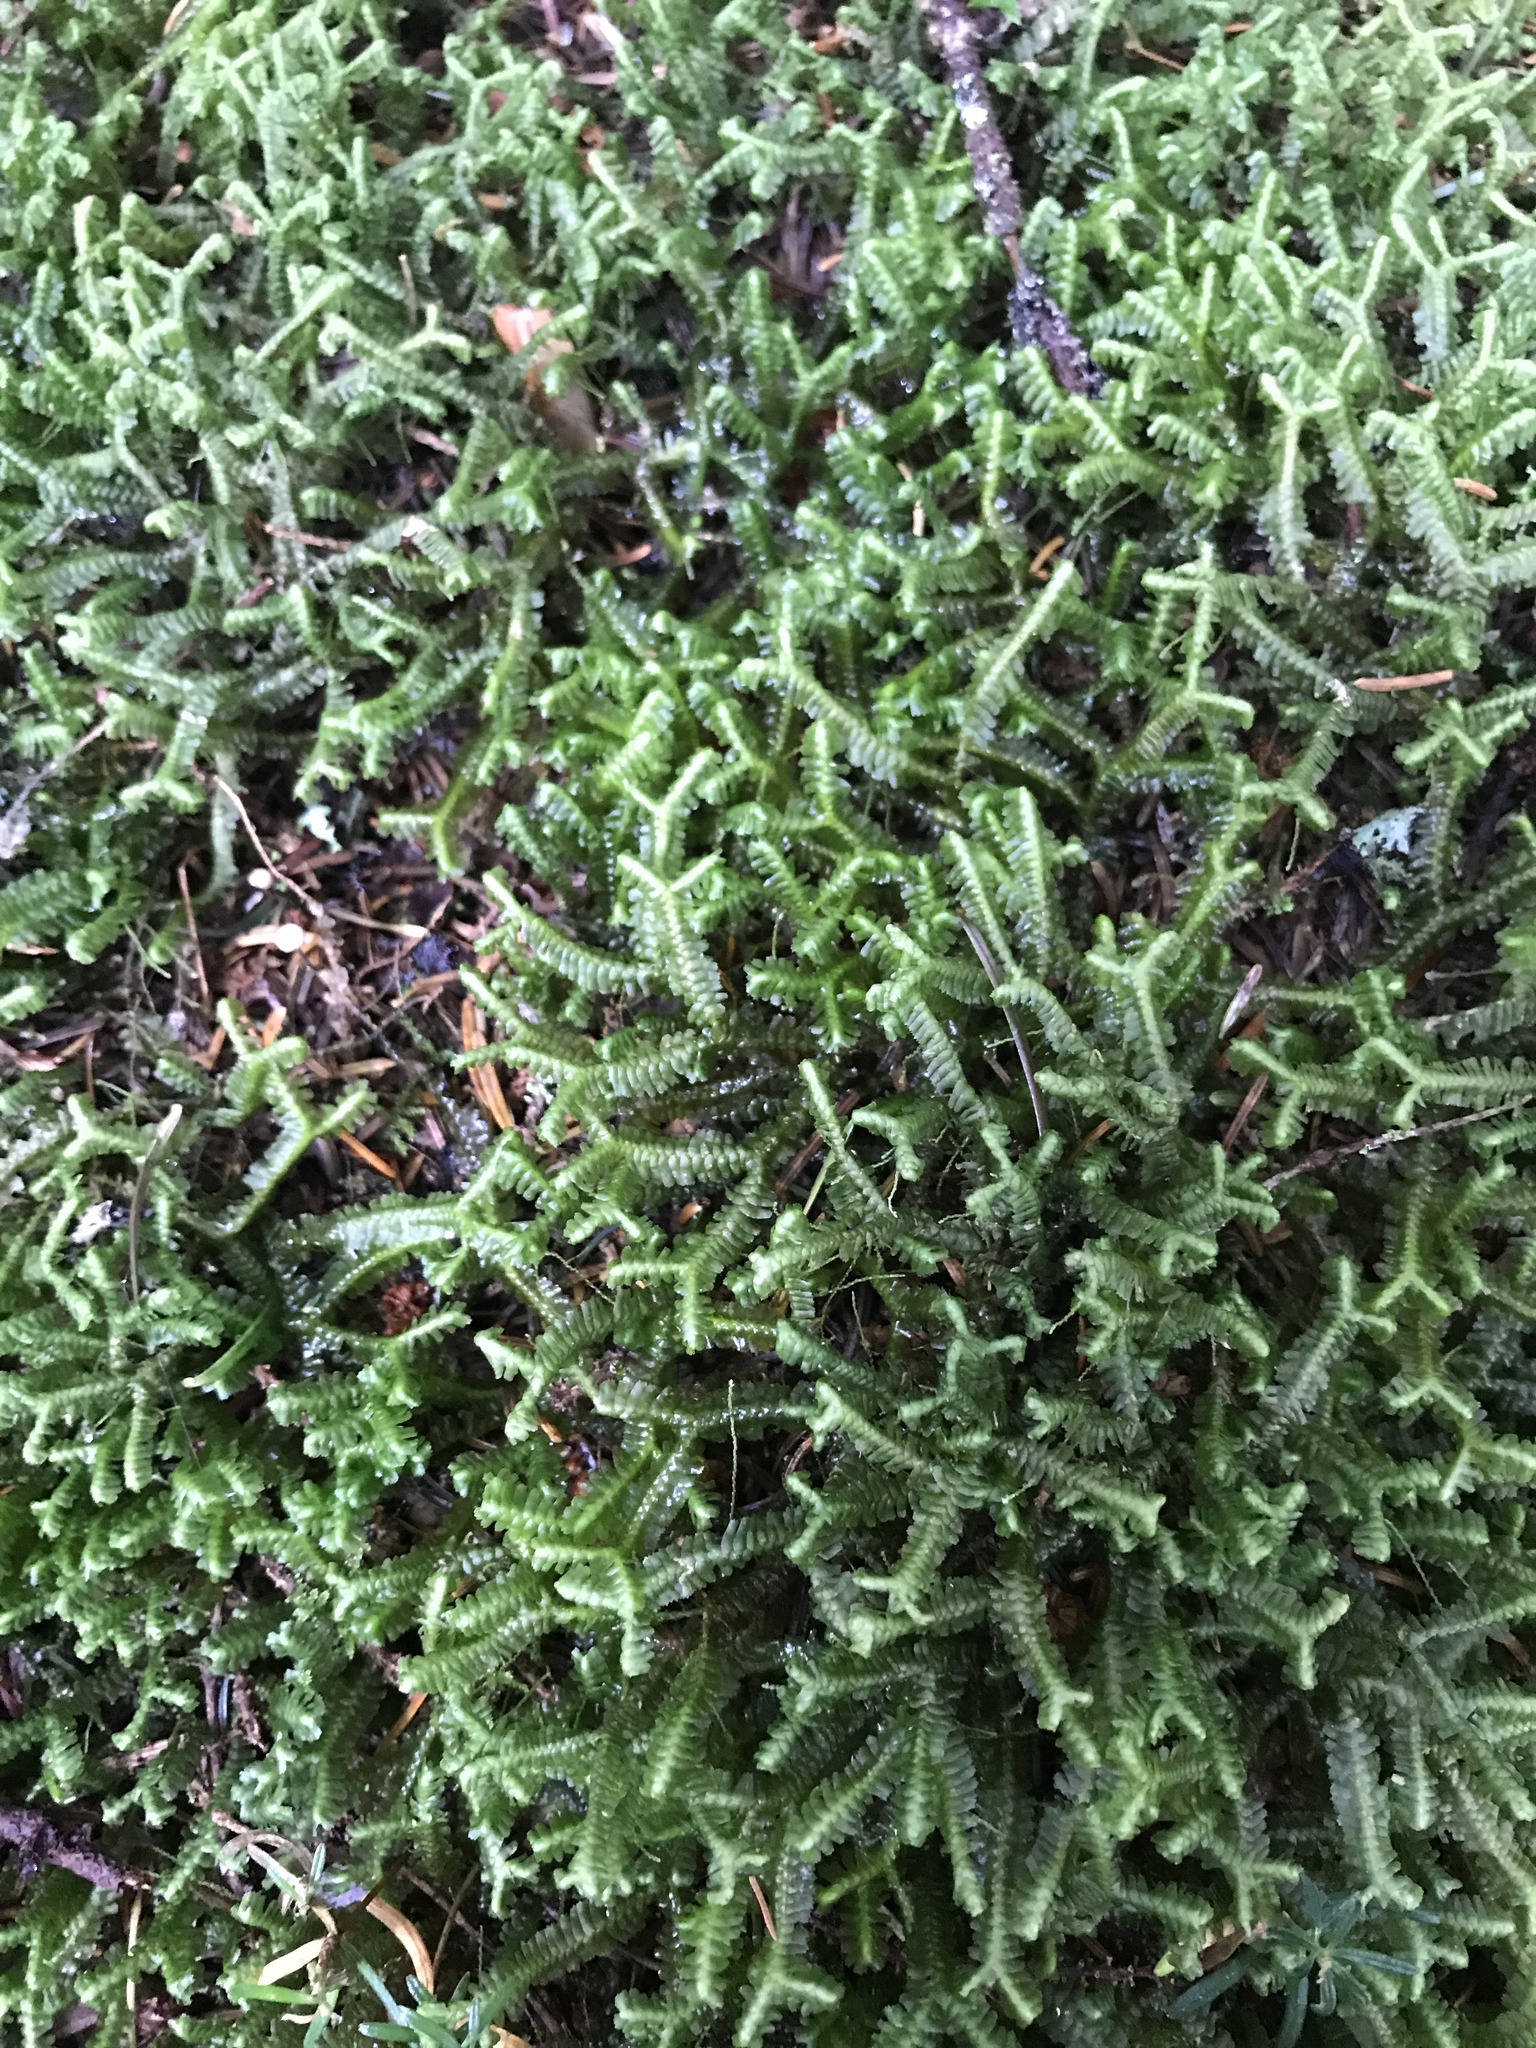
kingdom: Plantae
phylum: Marchantiophyta
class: Jungermanniopsida
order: Jungermanniales
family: Lepidoziaceae
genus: Bazzania
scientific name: Bazzania trilobata
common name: Three-lobed whipwort
